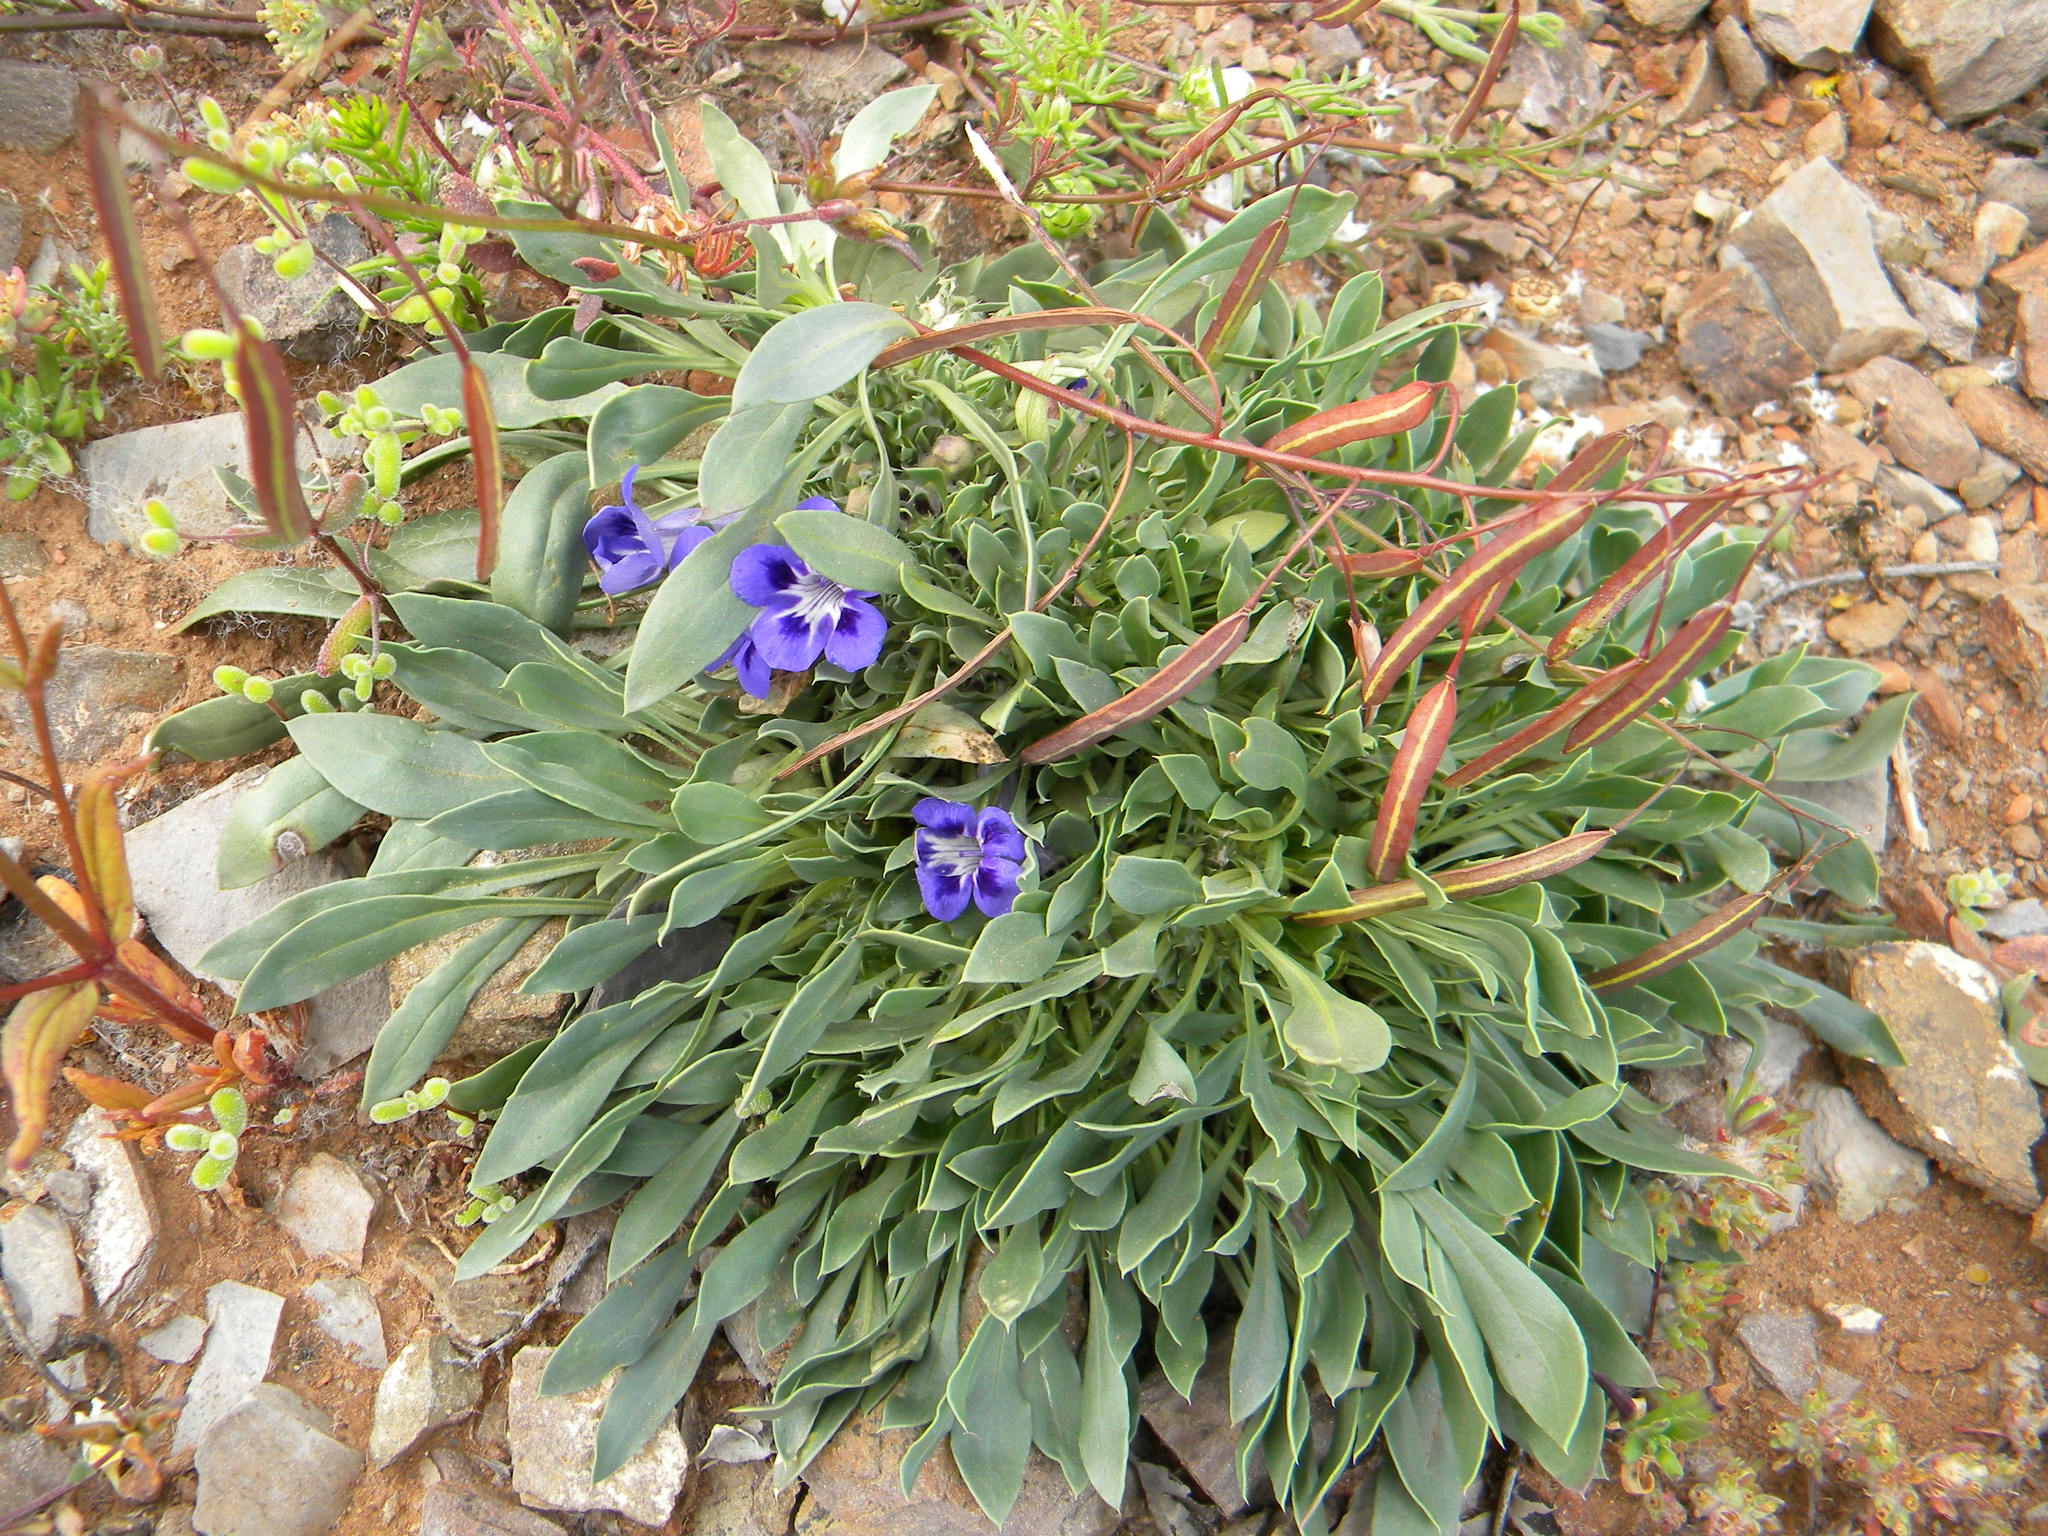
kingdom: Plantae
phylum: Tracheophyta
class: Magnoliopsida
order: Lamiales
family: Scrophulariaceae
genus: Aptosimum
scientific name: Aptosimum indivisum
